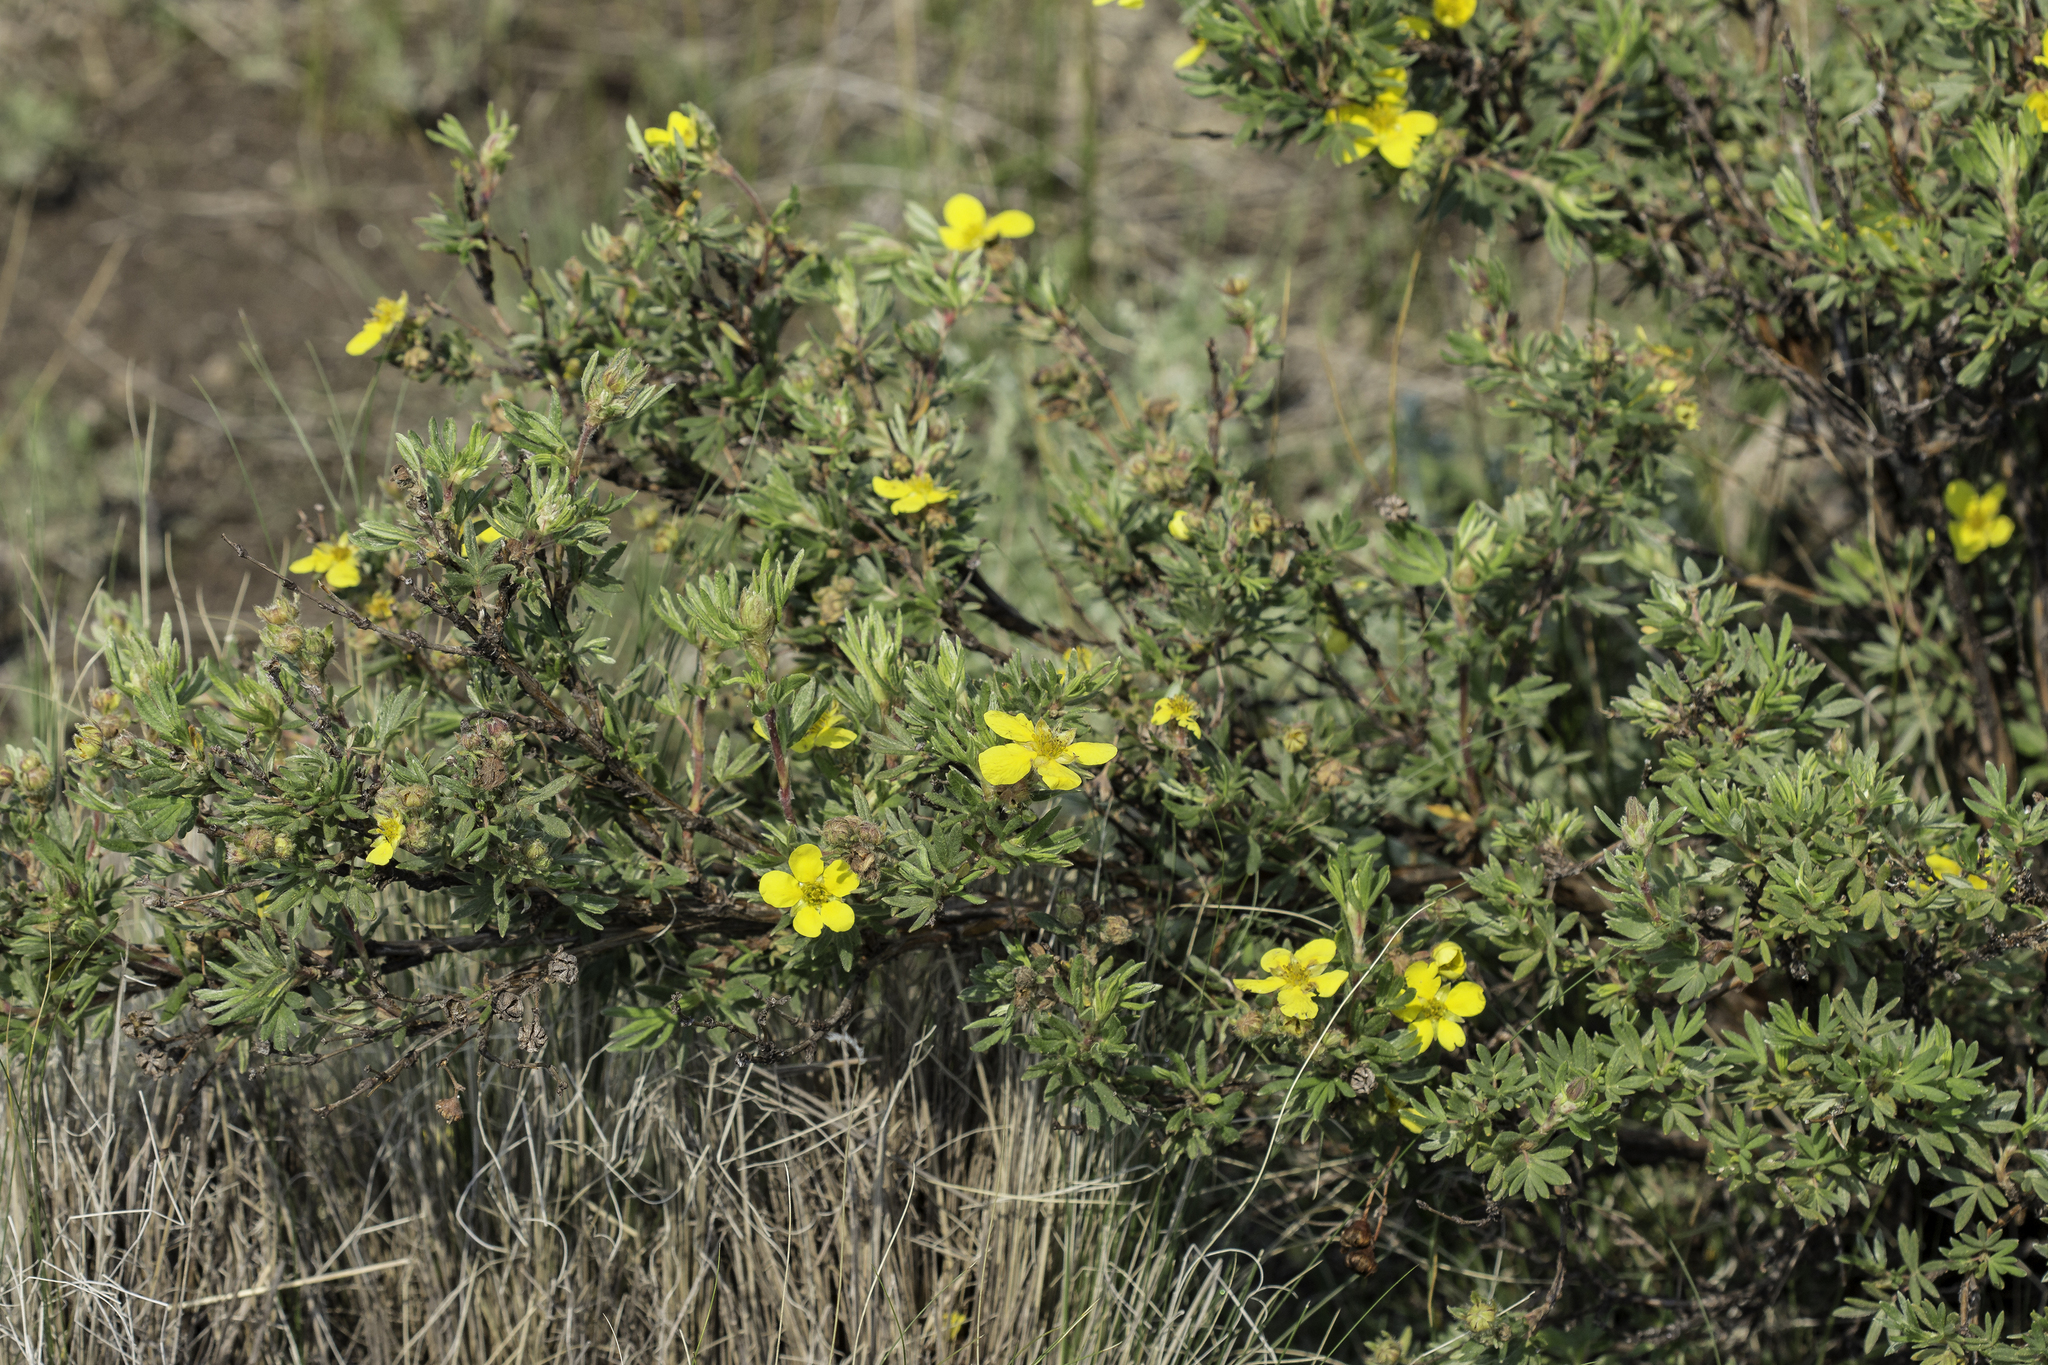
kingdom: Plantae
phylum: Tracheophyta
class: Magnoliopsida
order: Rosales
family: Rosaceae
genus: Dasiphora
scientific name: Dasiphora fruticosa
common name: Shrubby cinquefoil
